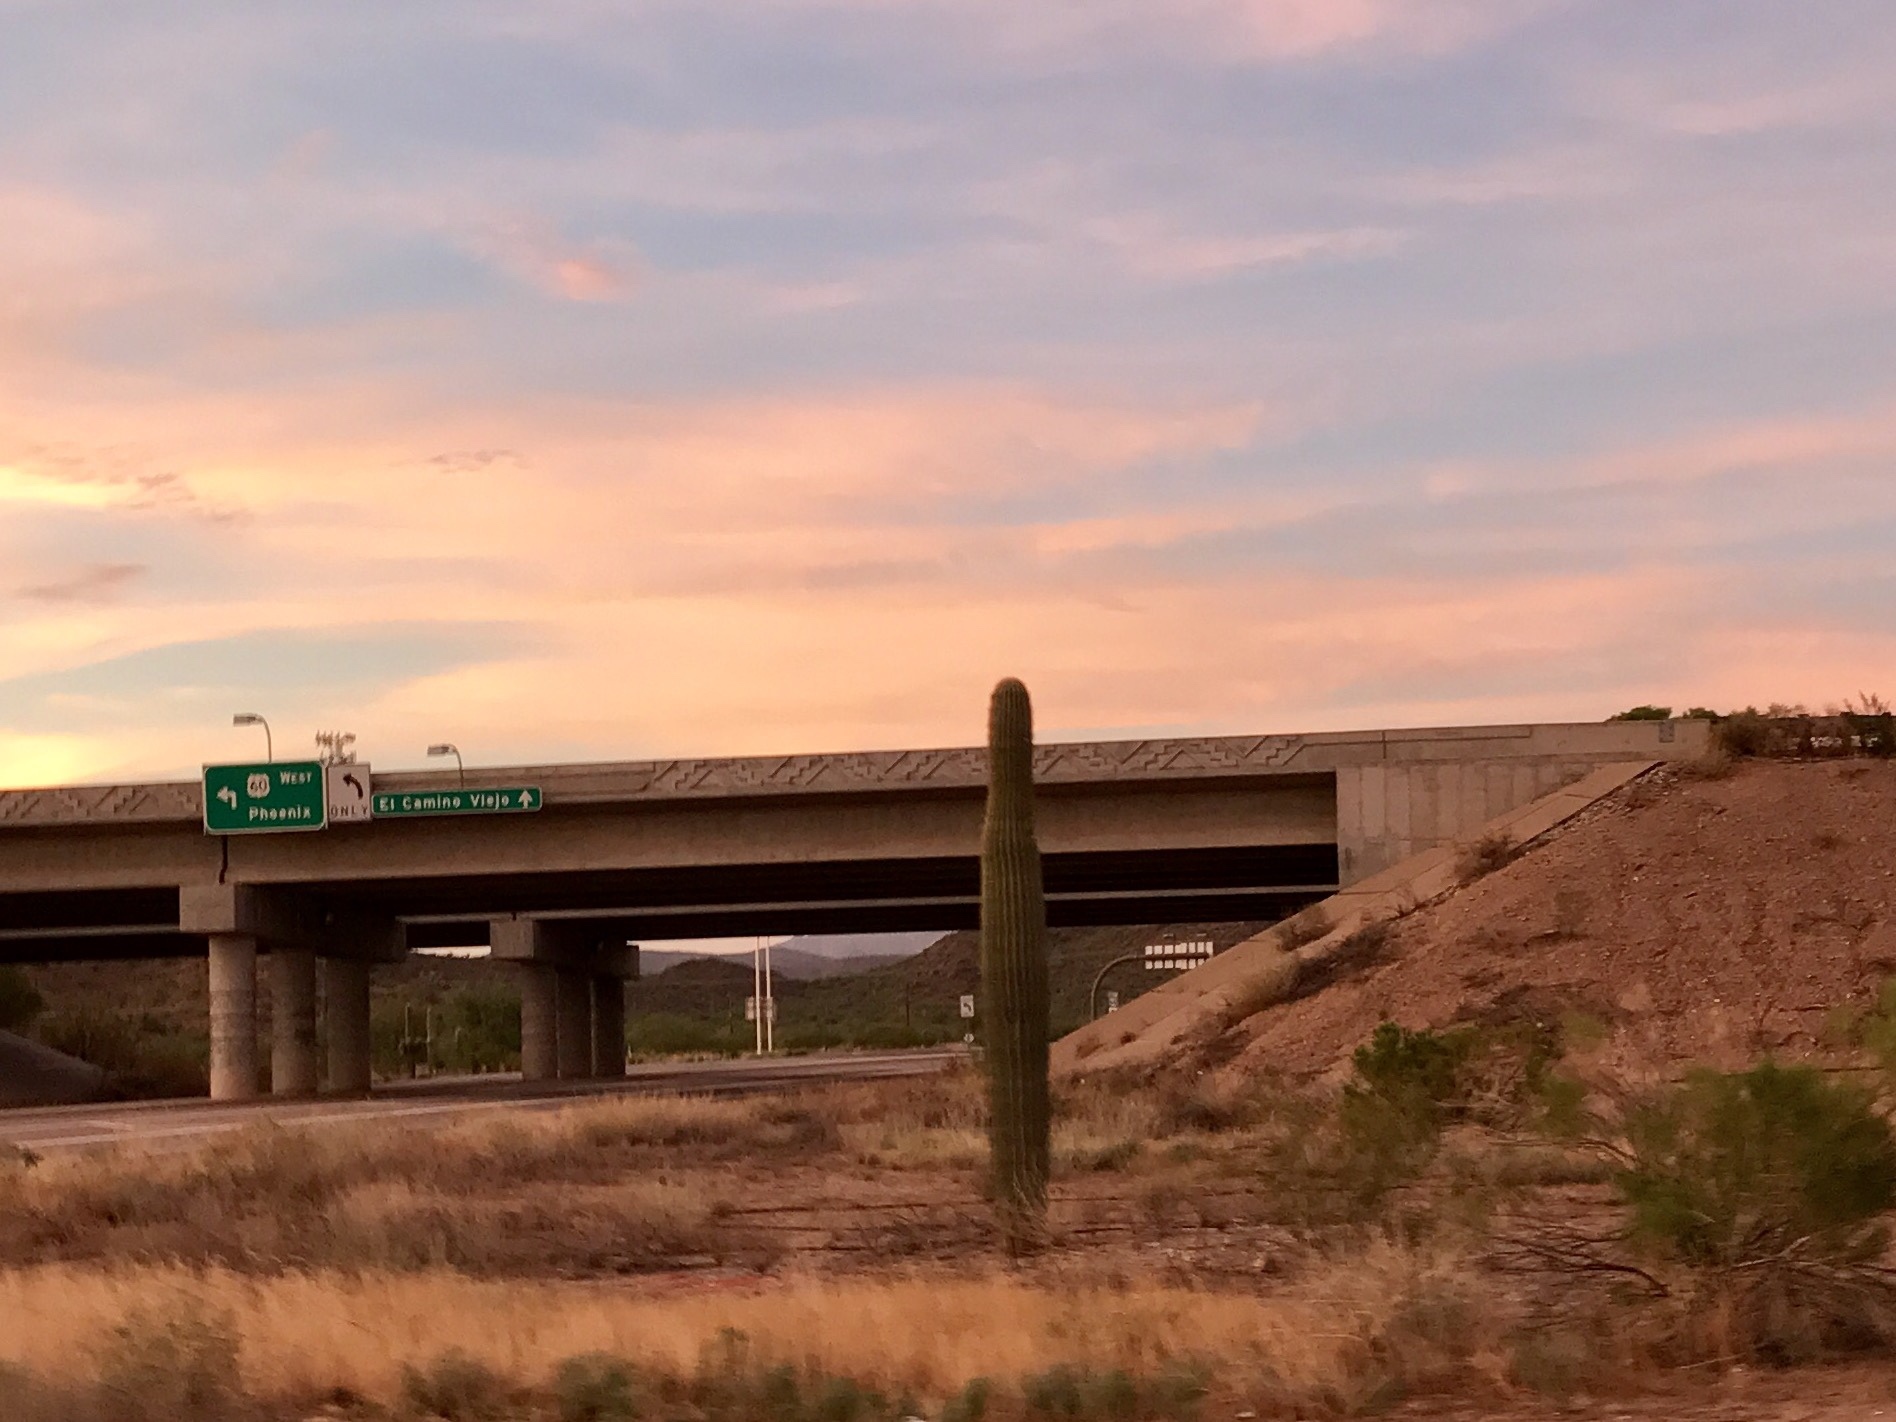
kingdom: Plantae
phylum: Tracheophyta
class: Magnoliopsida
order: Caryophyllales
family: Cactaceae
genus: Carnegiea
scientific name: Carnegiea gigantea
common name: Saguaro
